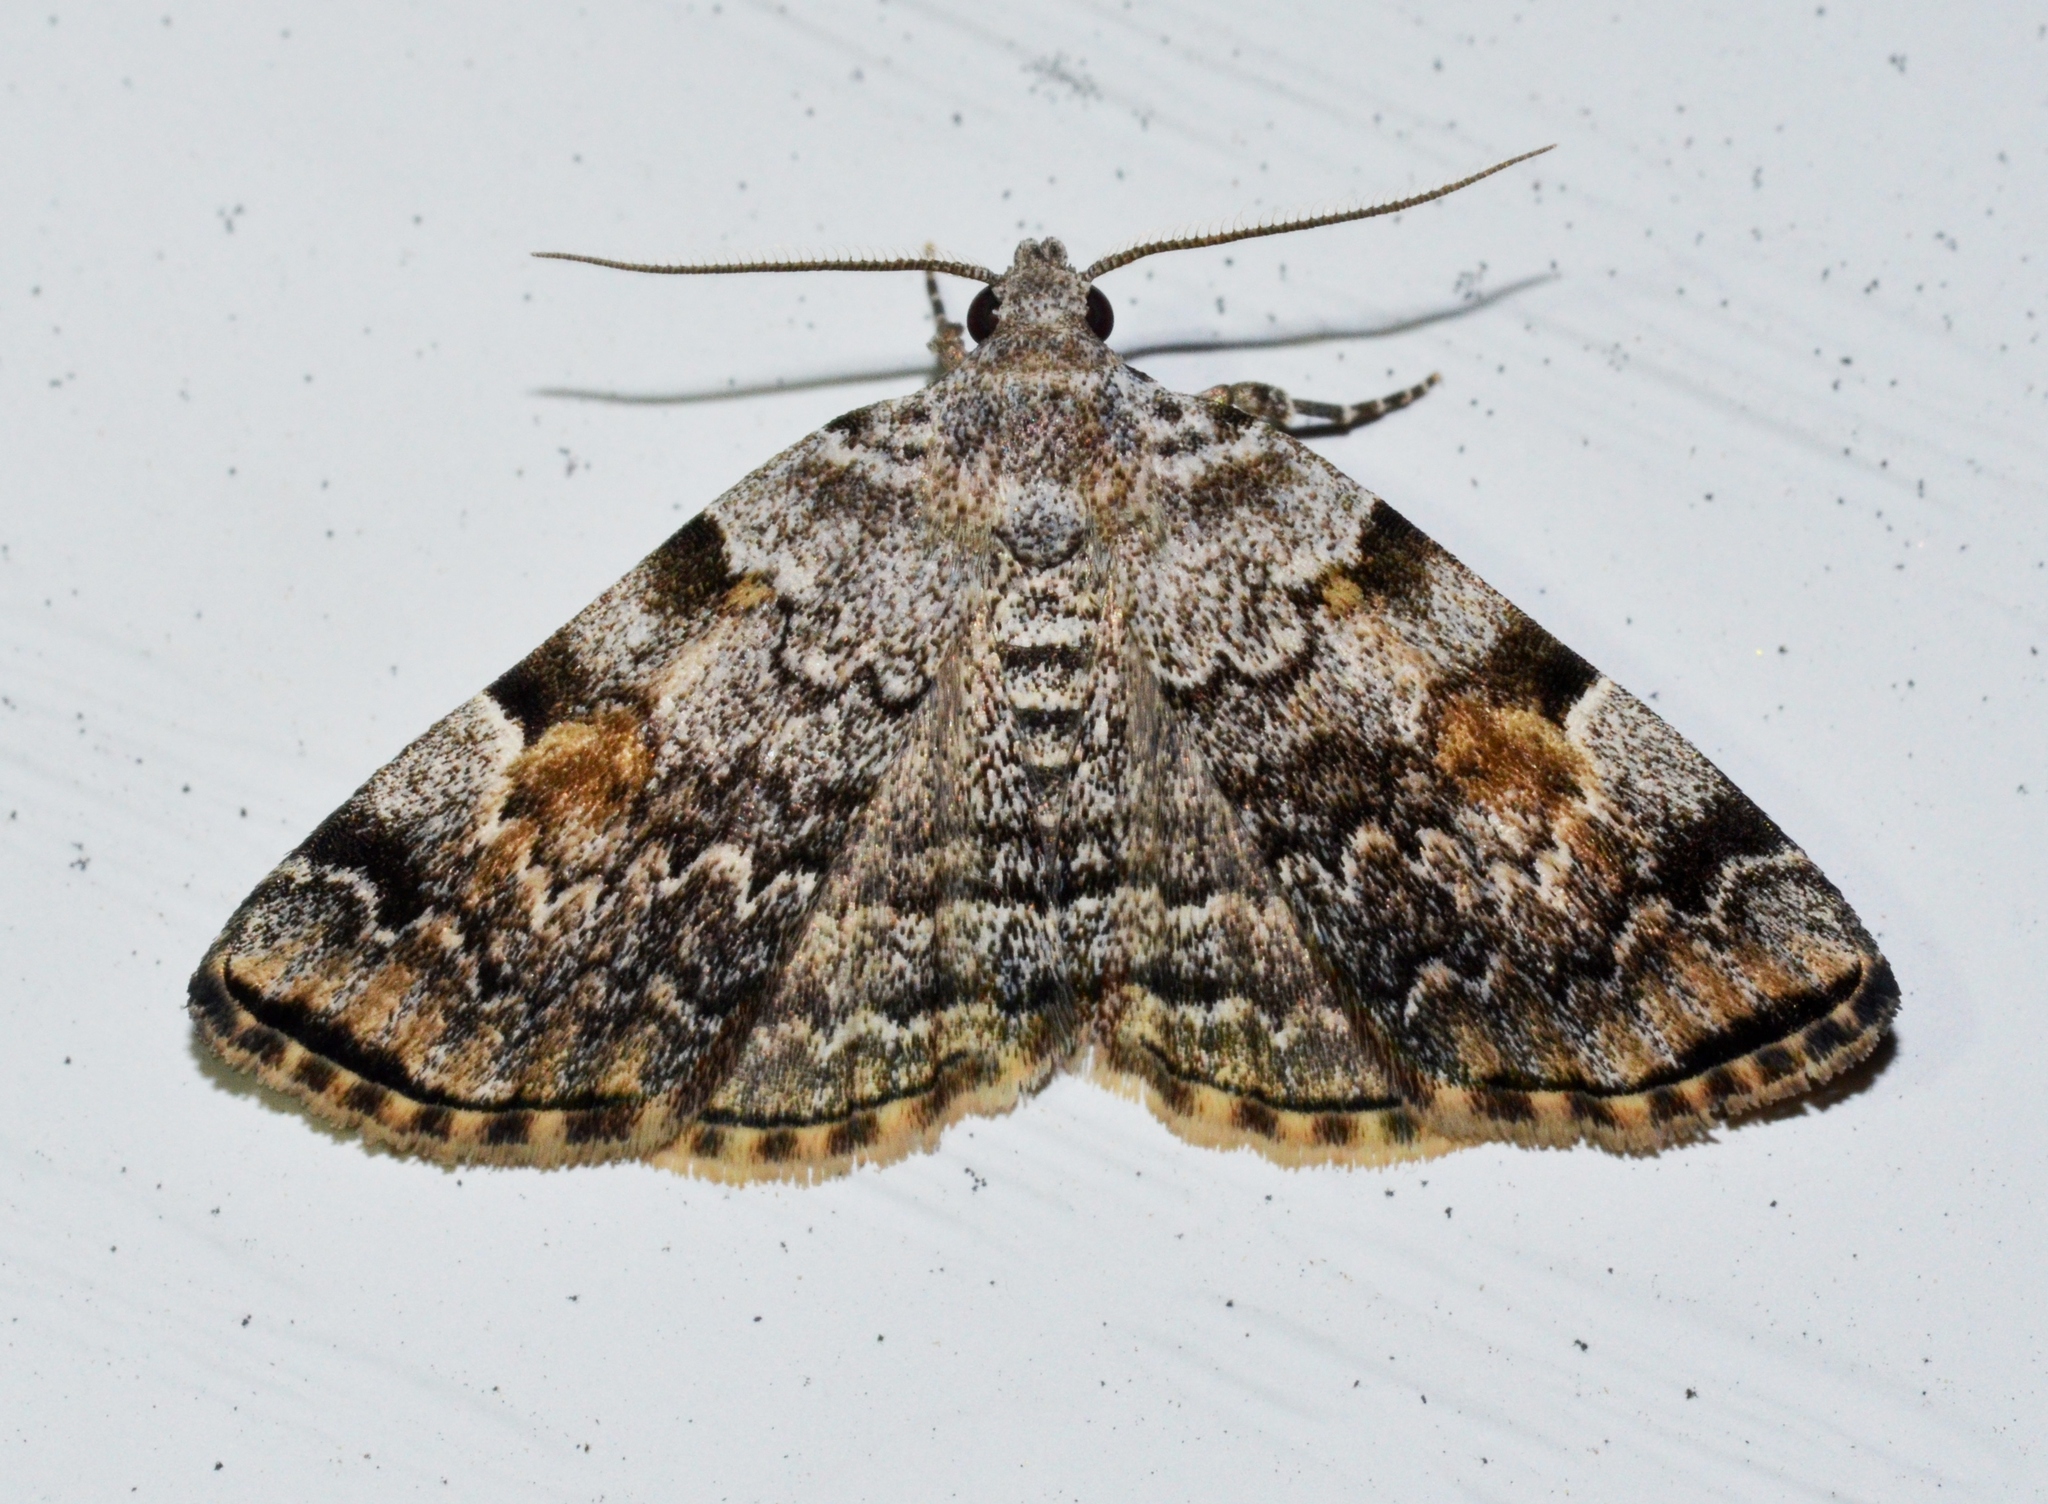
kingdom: Animalia
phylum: Arthropoda
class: Insecta
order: Lepidoptera
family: Erebidae
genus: Idia
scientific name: Idia americalis
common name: American idia moth
